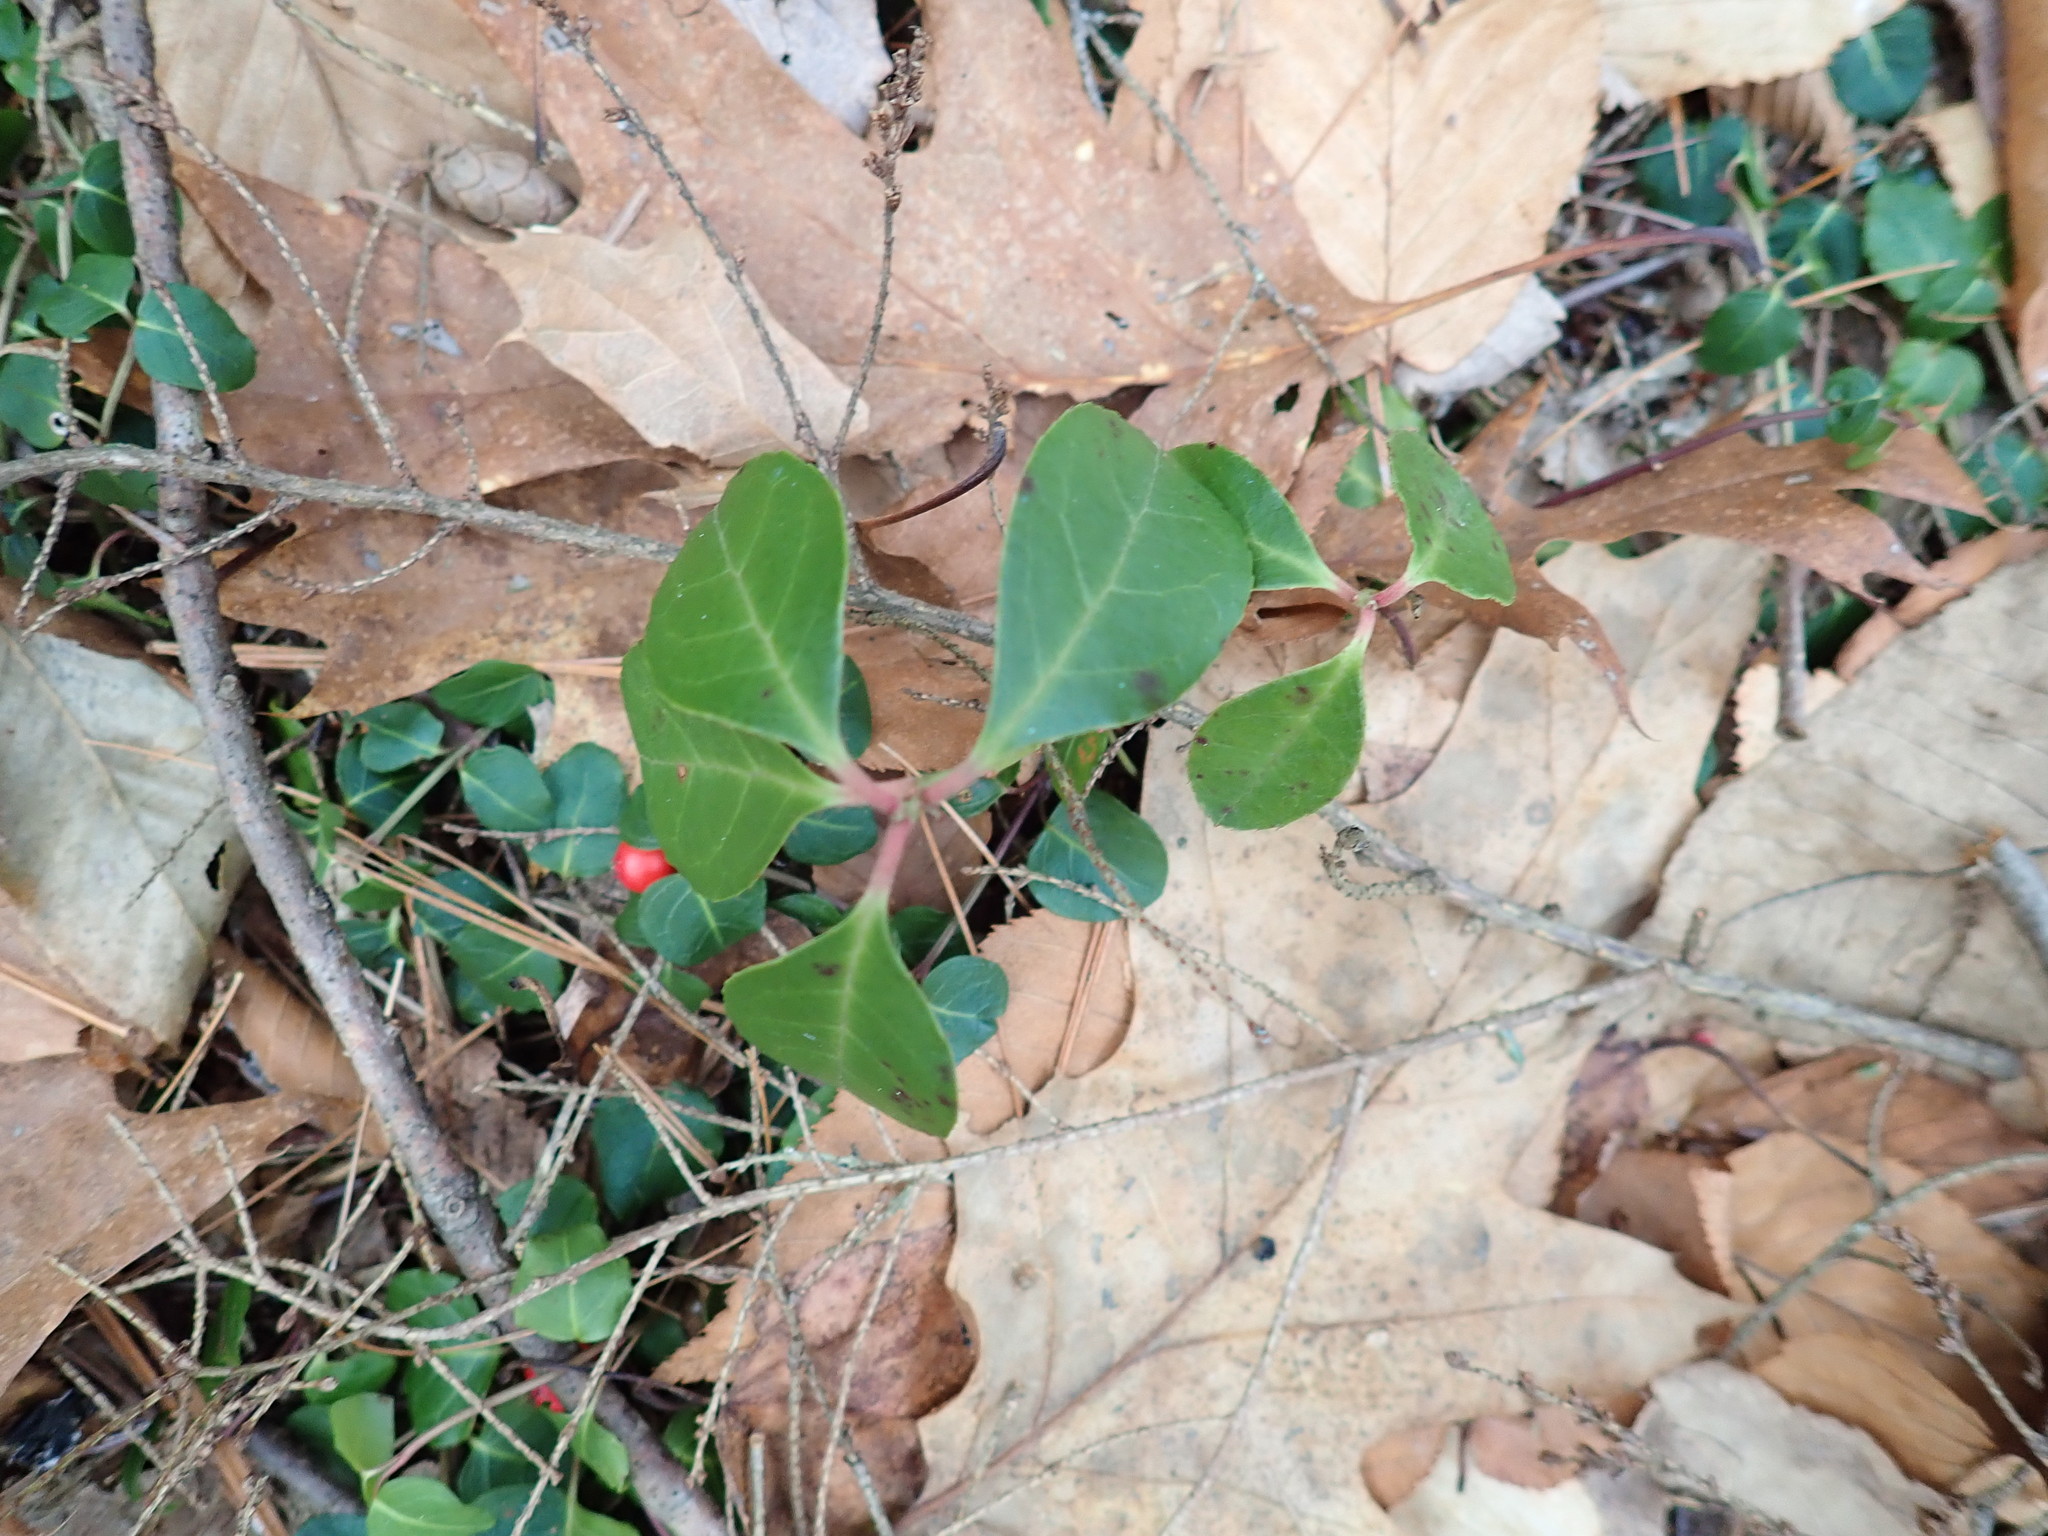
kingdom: Plantae
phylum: Tracheophyta
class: Magnoliopsida
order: Ericales
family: Ericaceae
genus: Gaultheria
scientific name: Gaultheria procumbens
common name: Checkerberry
